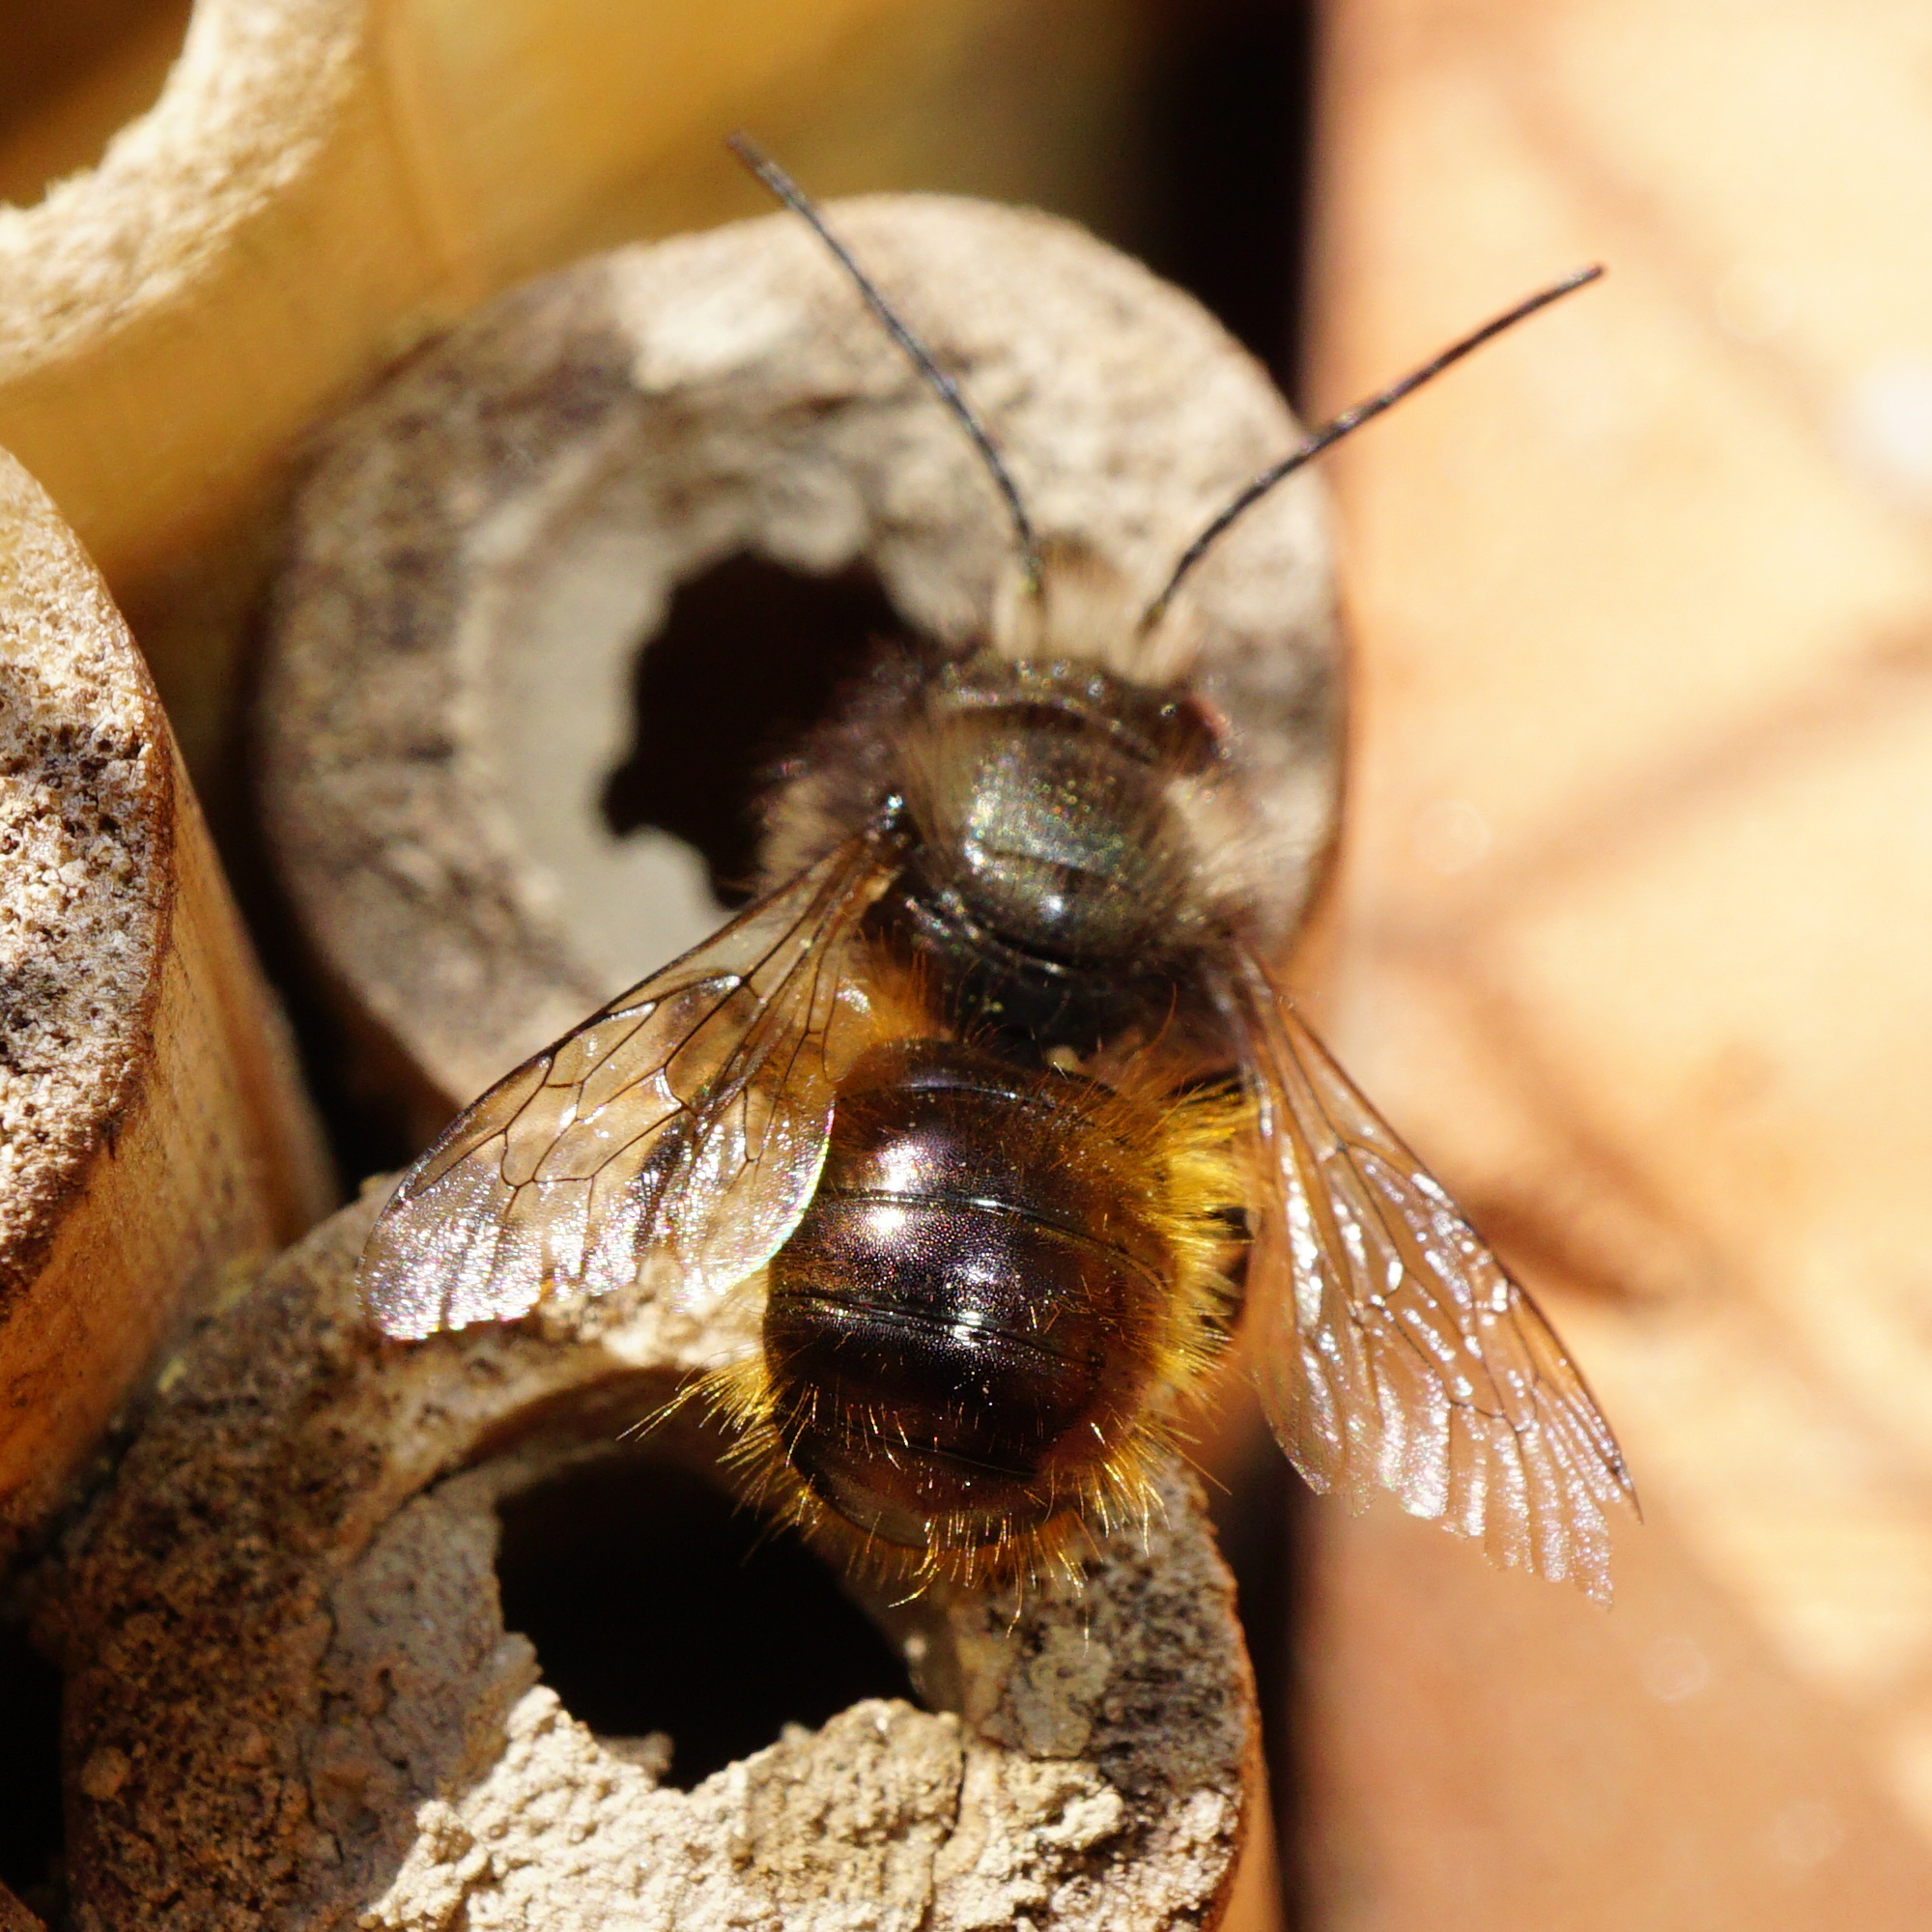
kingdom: Animalia
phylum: Arthropoda
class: Insecta
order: Hymenoptera
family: Megachilidae
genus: Osmia
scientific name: Osmia cornuta
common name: Mason bee
